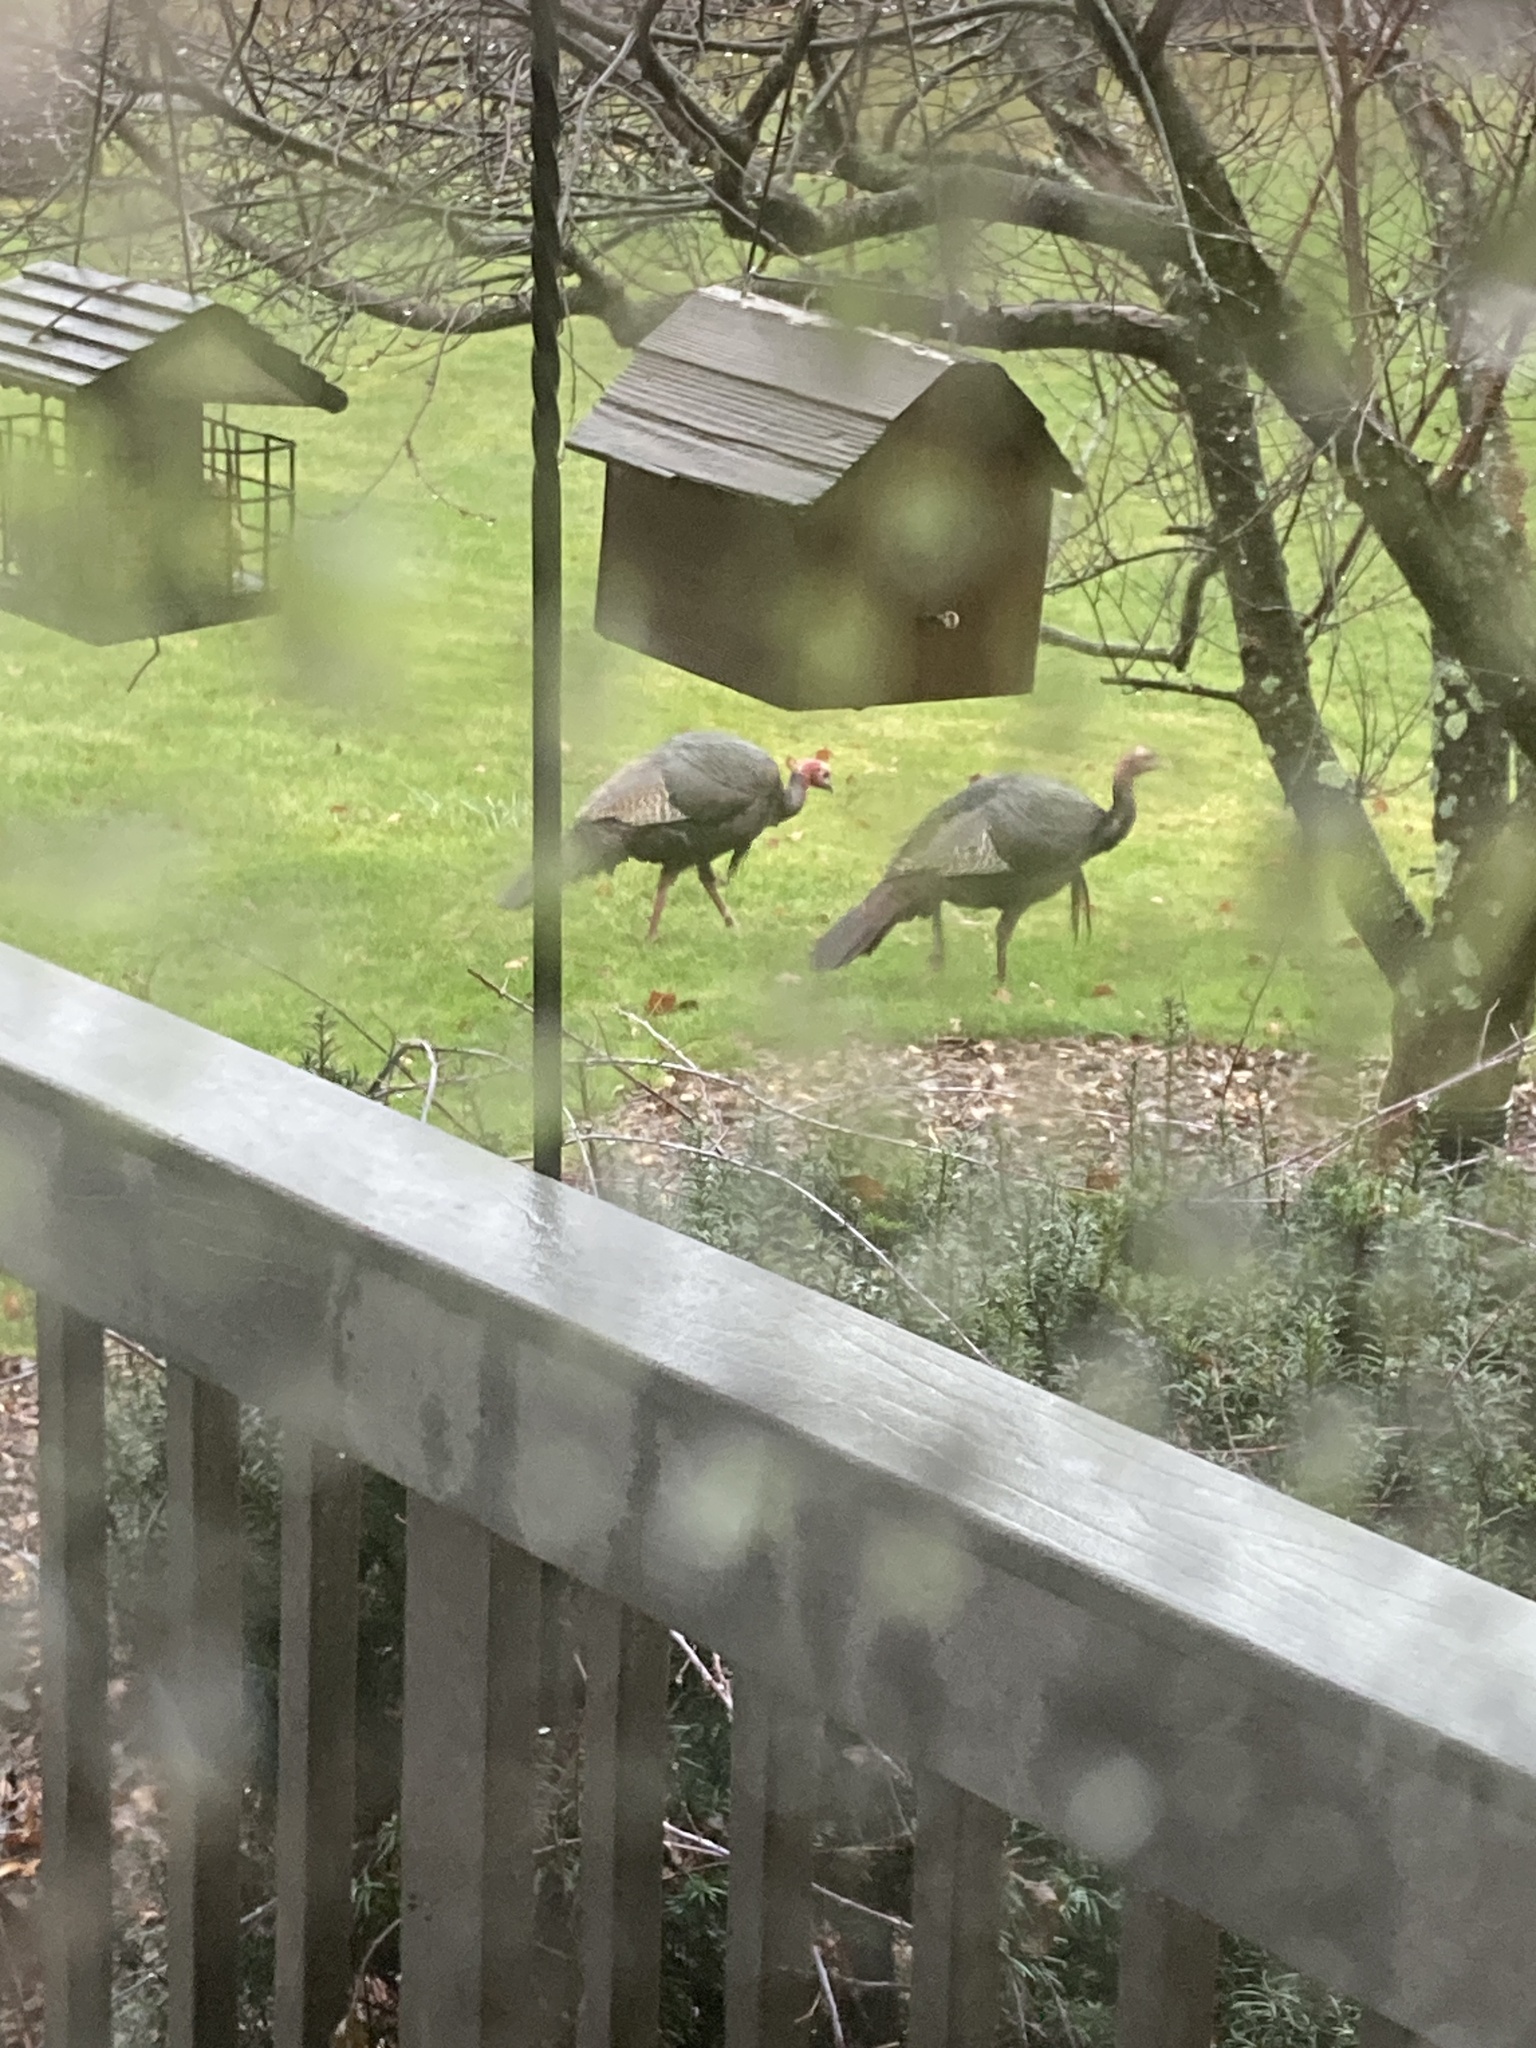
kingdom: Animalia
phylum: Chordata
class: Aves
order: Galliformes
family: Phasianidae
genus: Meleagris
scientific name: Meleagris gallopavo
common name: Wild turkey
